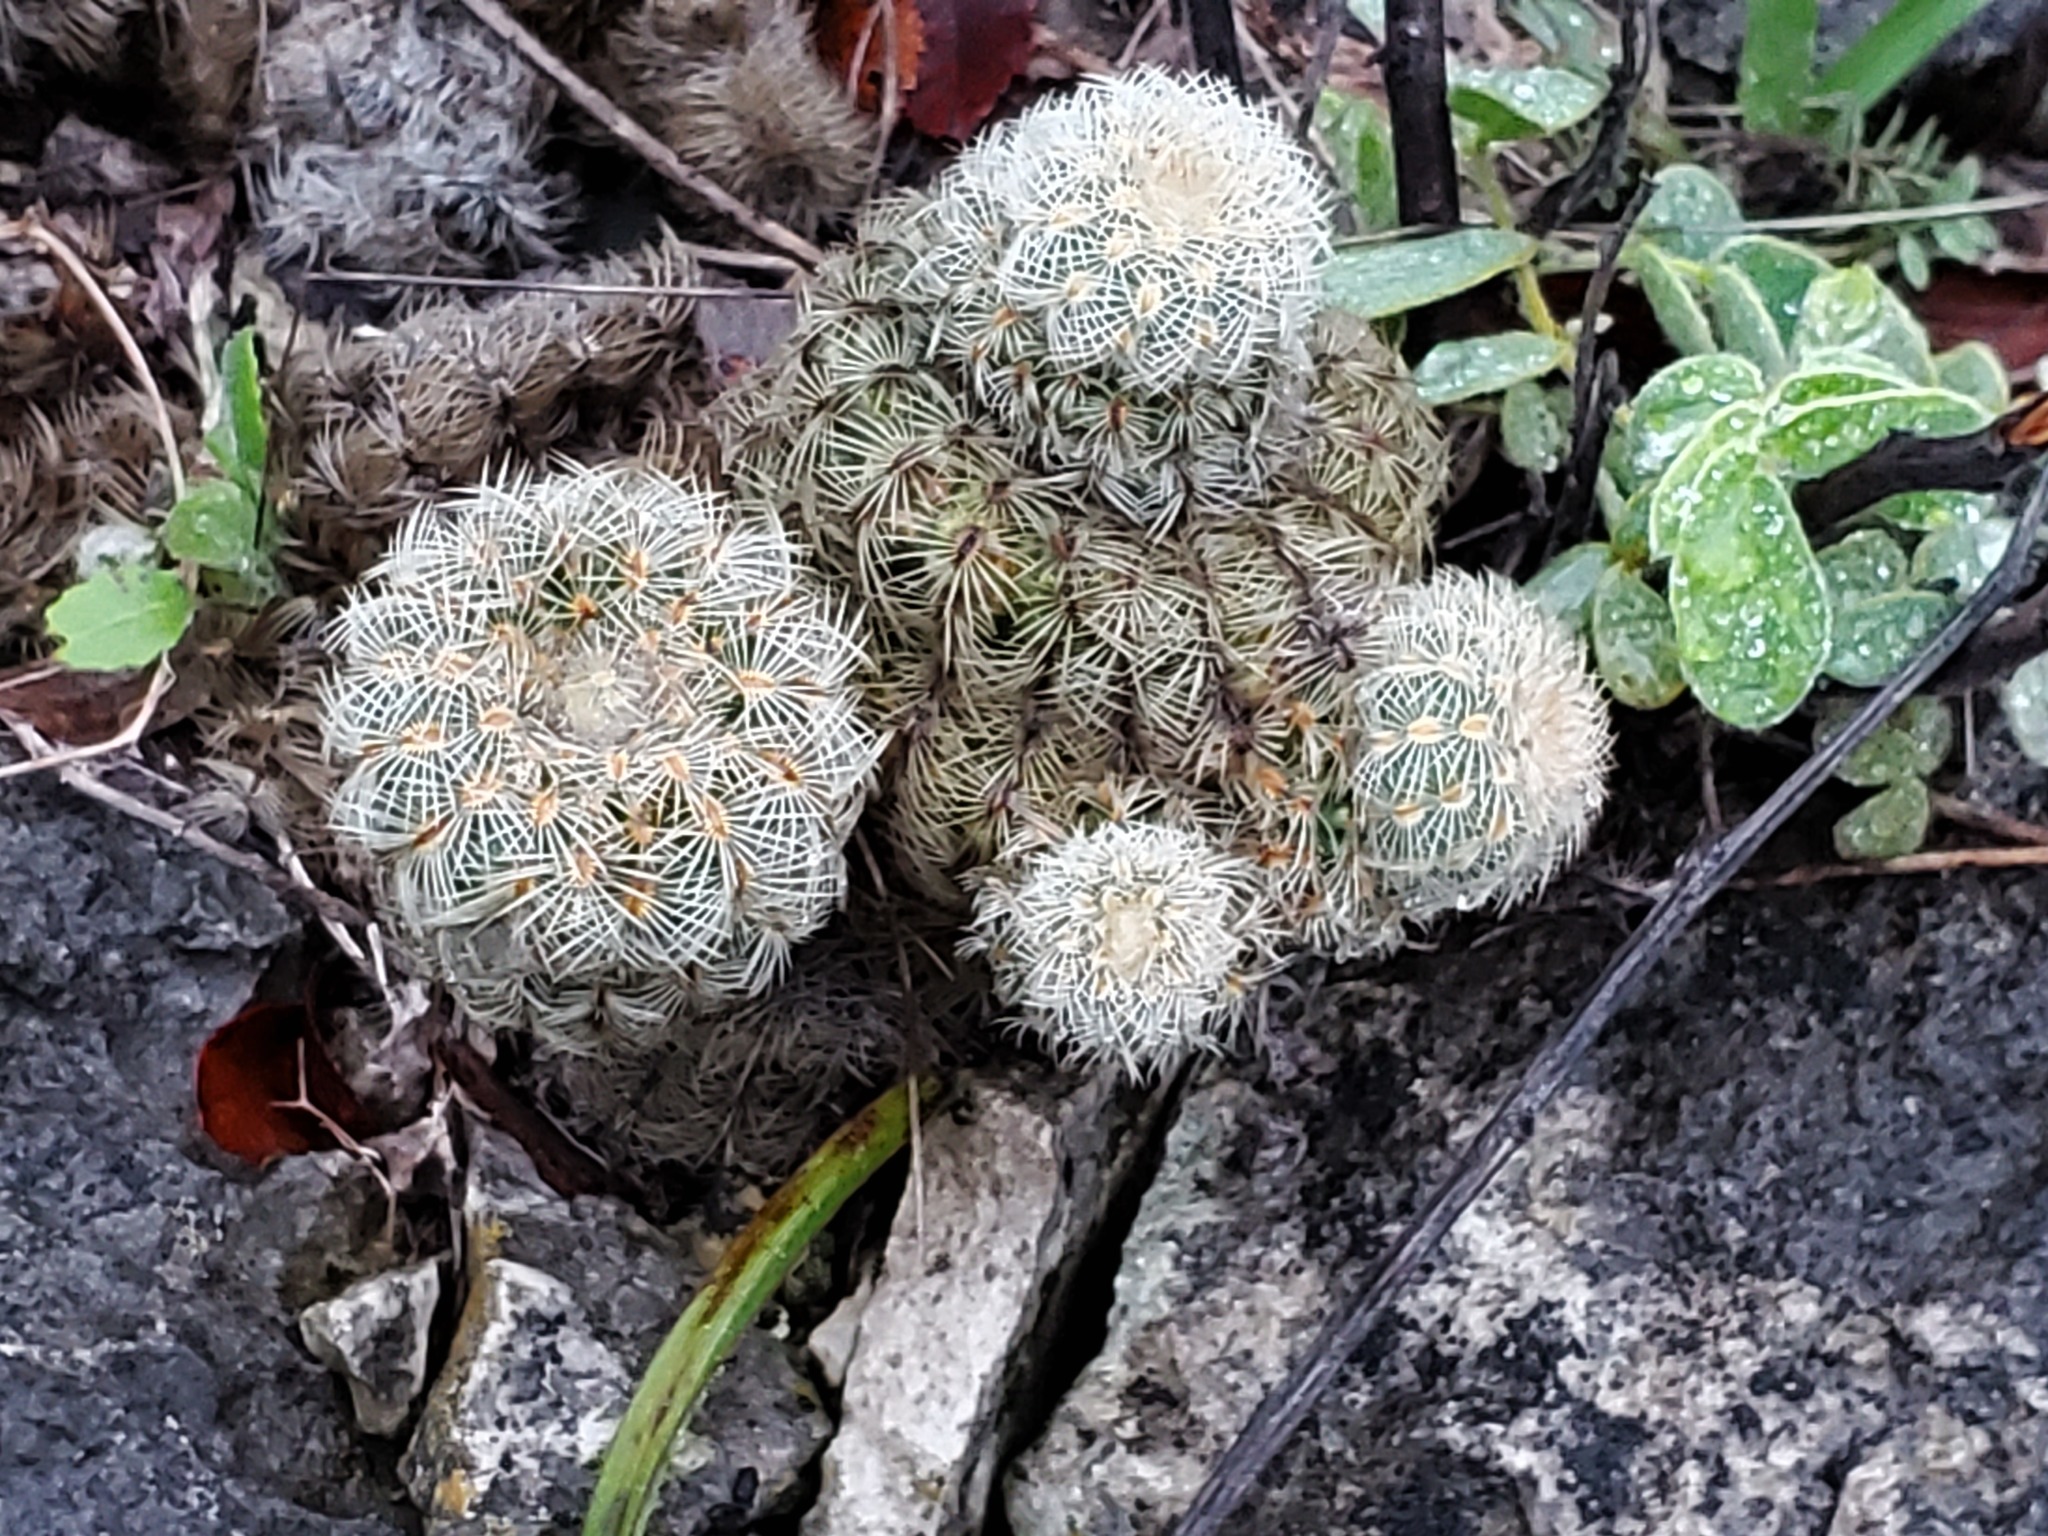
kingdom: Plantae
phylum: Tracheophyta
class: Magnoliopsida
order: Caryophyllales
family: Cactaceae
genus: Echinocereus
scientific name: Echinocereus reichenbachii
